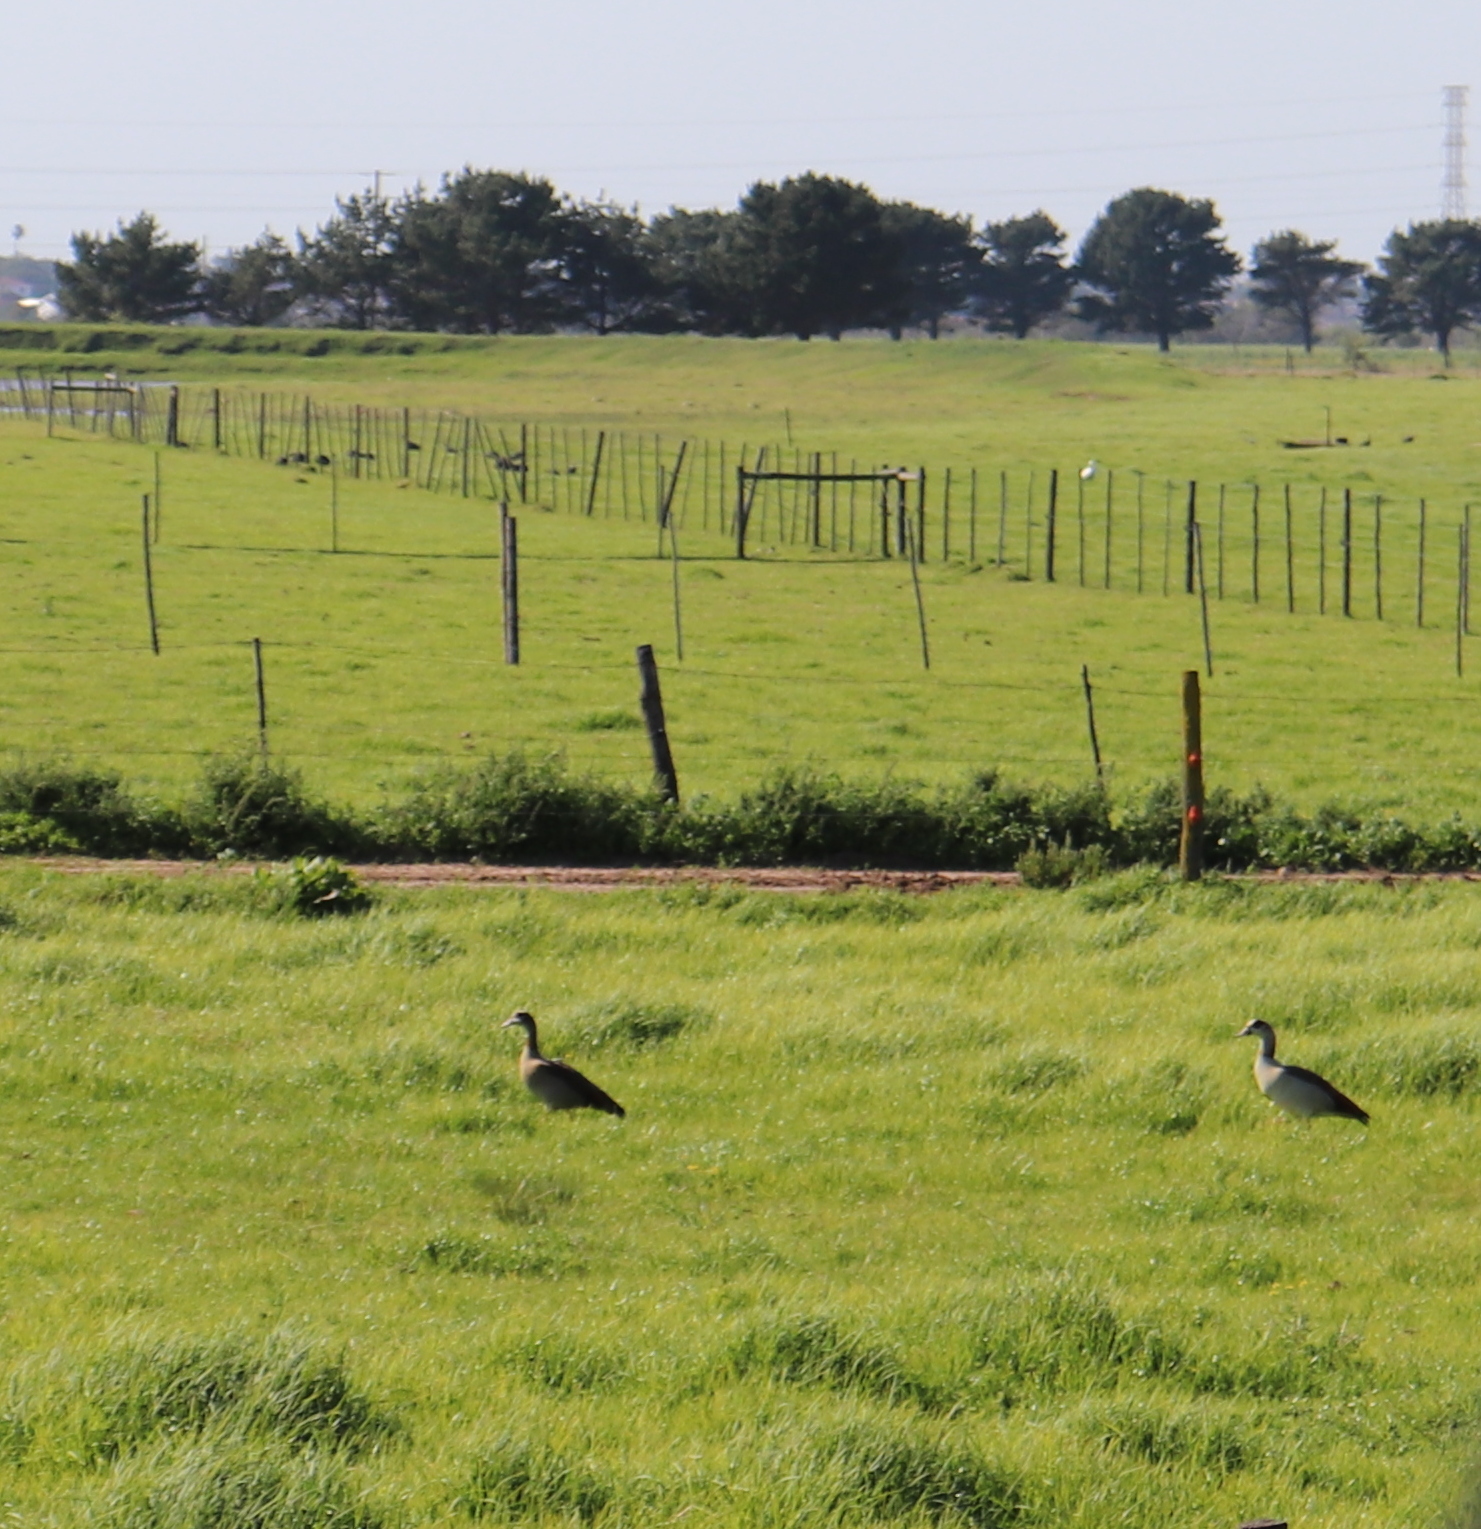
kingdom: Animalia
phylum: Chordata
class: Aves
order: Anseriformes
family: Anatidae
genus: Alopochen
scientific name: Alopochen aegyptiaca
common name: Egyptian goose
